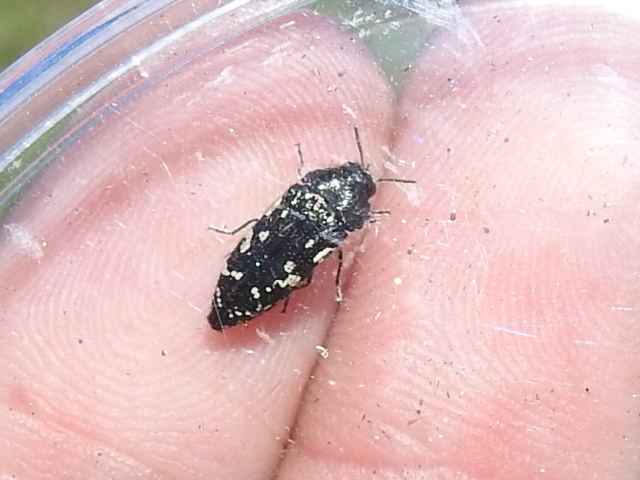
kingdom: Animalia
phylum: Arthropoda
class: Insecta
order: Coleoptera
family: Buprestidae
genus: Acmaeodera
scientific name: Acmaeodera ornata
